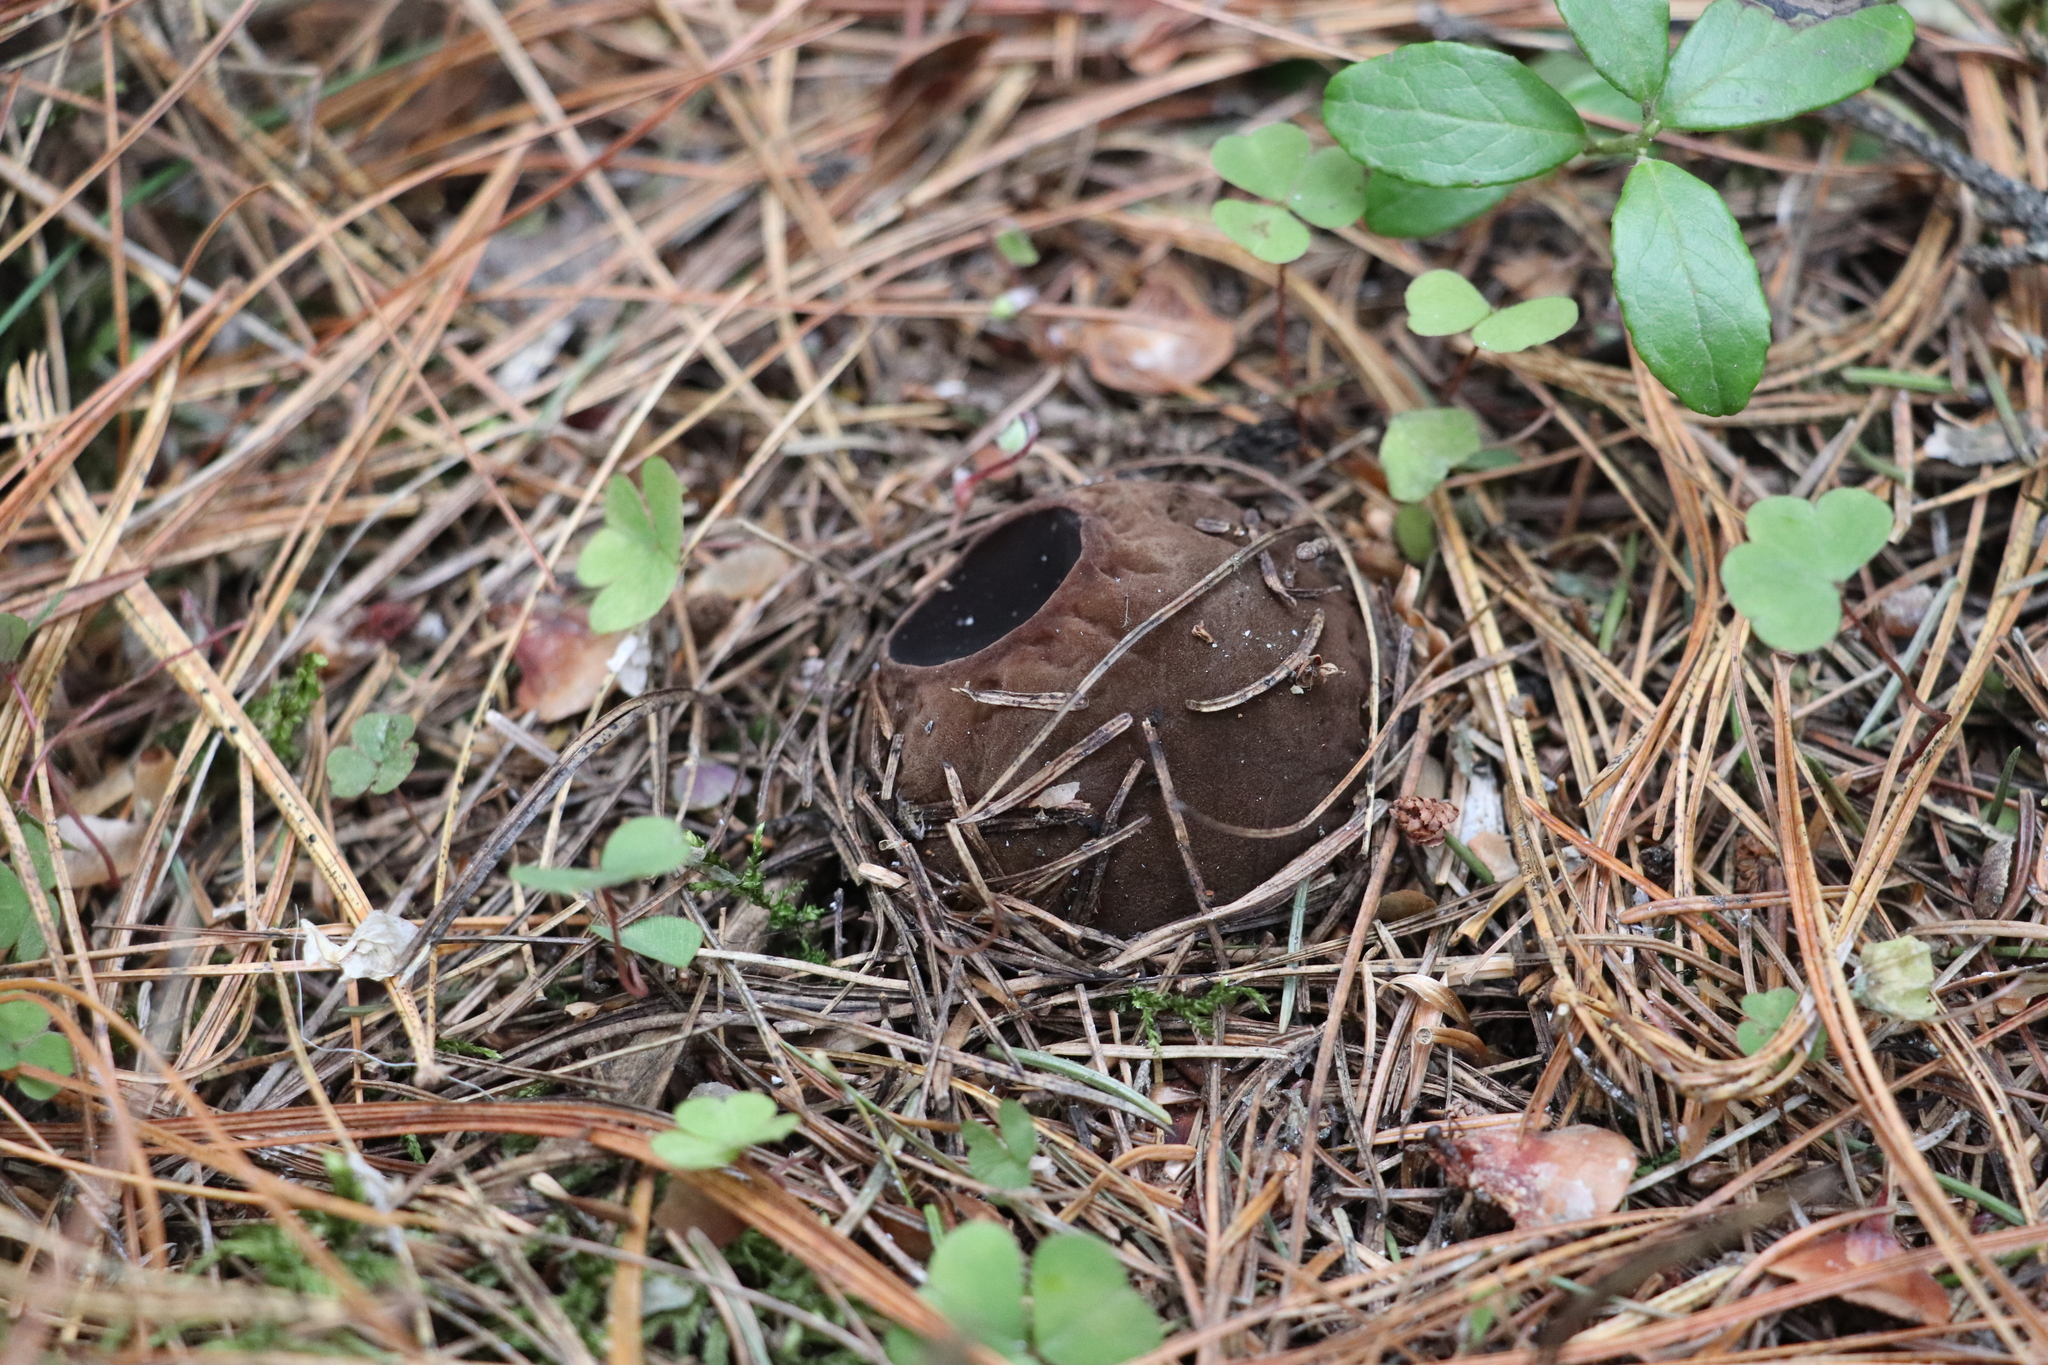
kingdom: Fungi
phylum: Ascomycota
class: Pezizomycetes
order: Pezizales
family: Sarcosomataceae
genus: Sarcosoma
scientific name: Sarcosoma globosum
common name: Charred-pancake cup
